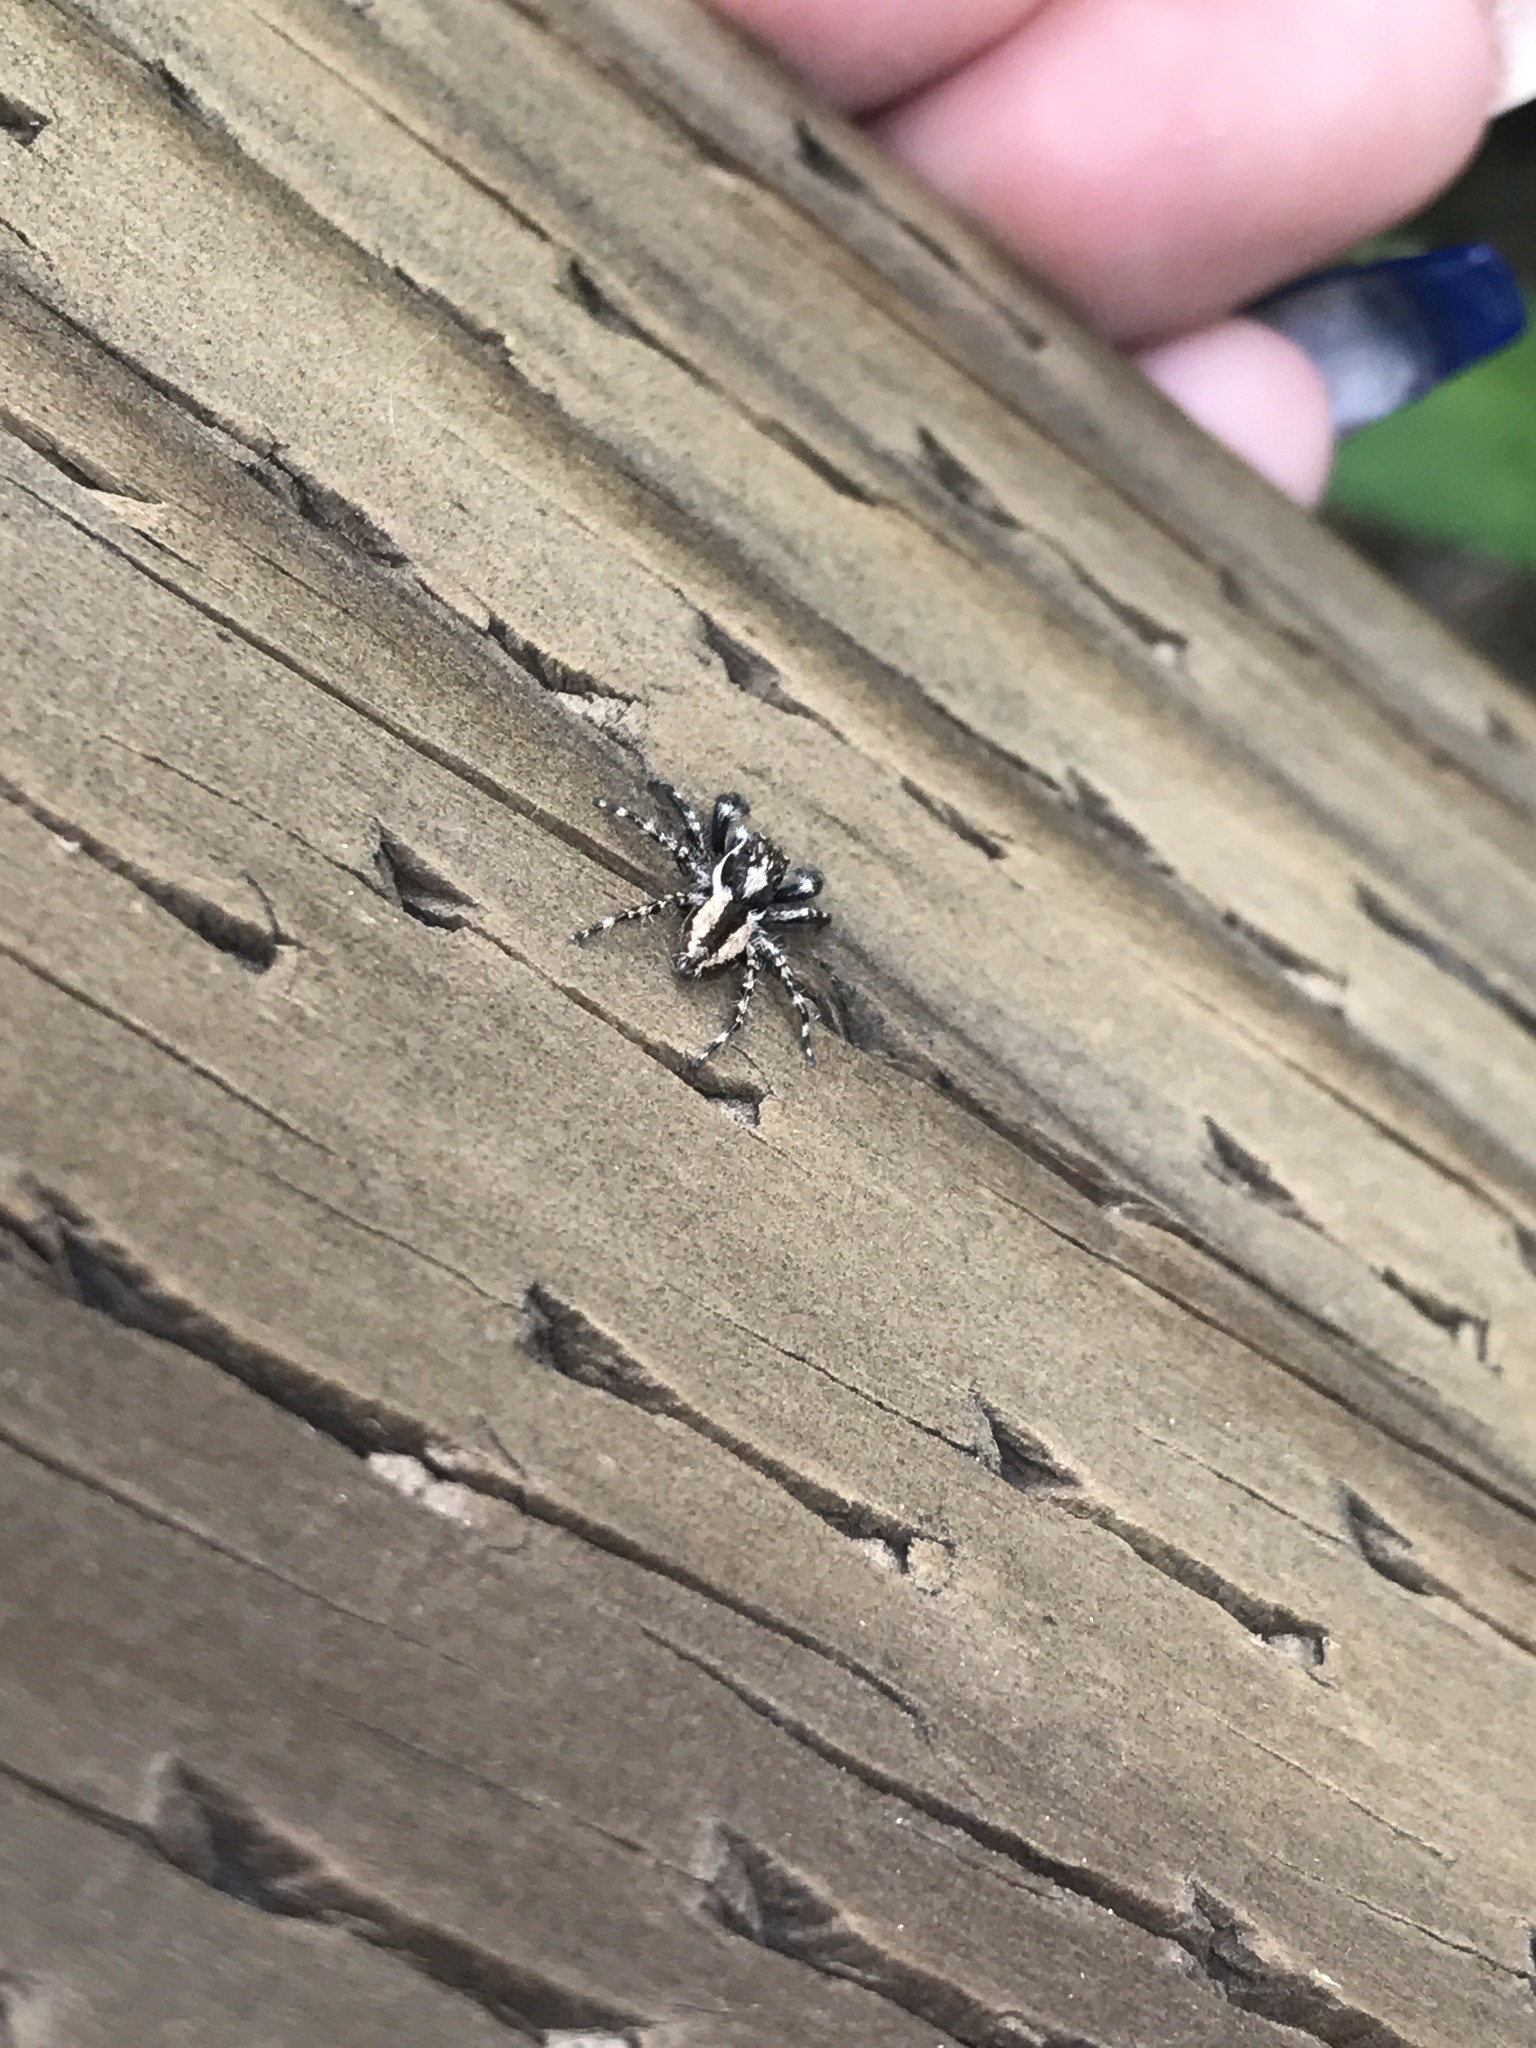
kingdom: Animalia
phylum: Arthropoda
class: Arachnida
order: Araneae
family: Salticidae
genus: Menemerus
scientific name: Menemerus bivittatus
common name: Gray wall jumper
